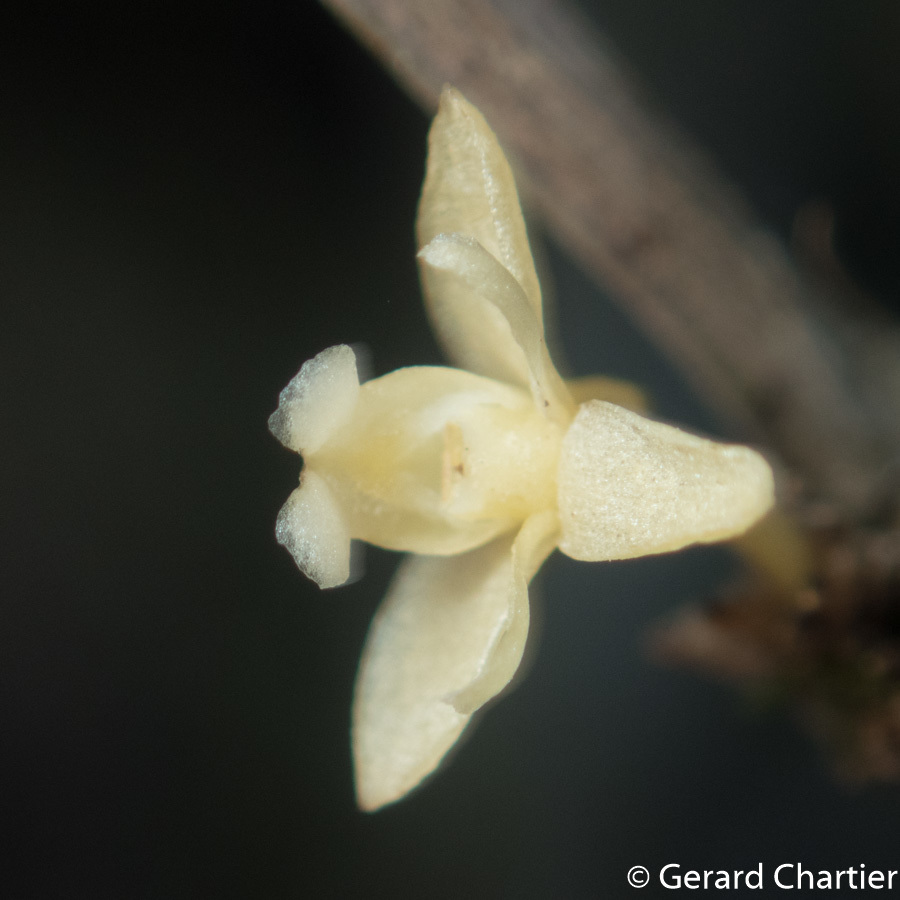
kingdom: Plantae
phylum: Tracheophyta
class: Liliopsida
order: Asparagales
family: Orchidaceae
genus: Dendrobium
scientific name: Dendrobium aloifolium
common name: Aloe-like dendrobium
